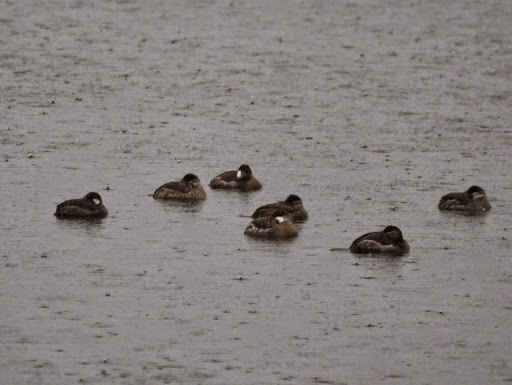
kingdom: Animalia
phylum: Chordata
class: Aves
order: Anseriformes
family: Anatidae
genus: Oxyura
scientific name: Oxyura jamaicensis
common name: Ruddy duck
